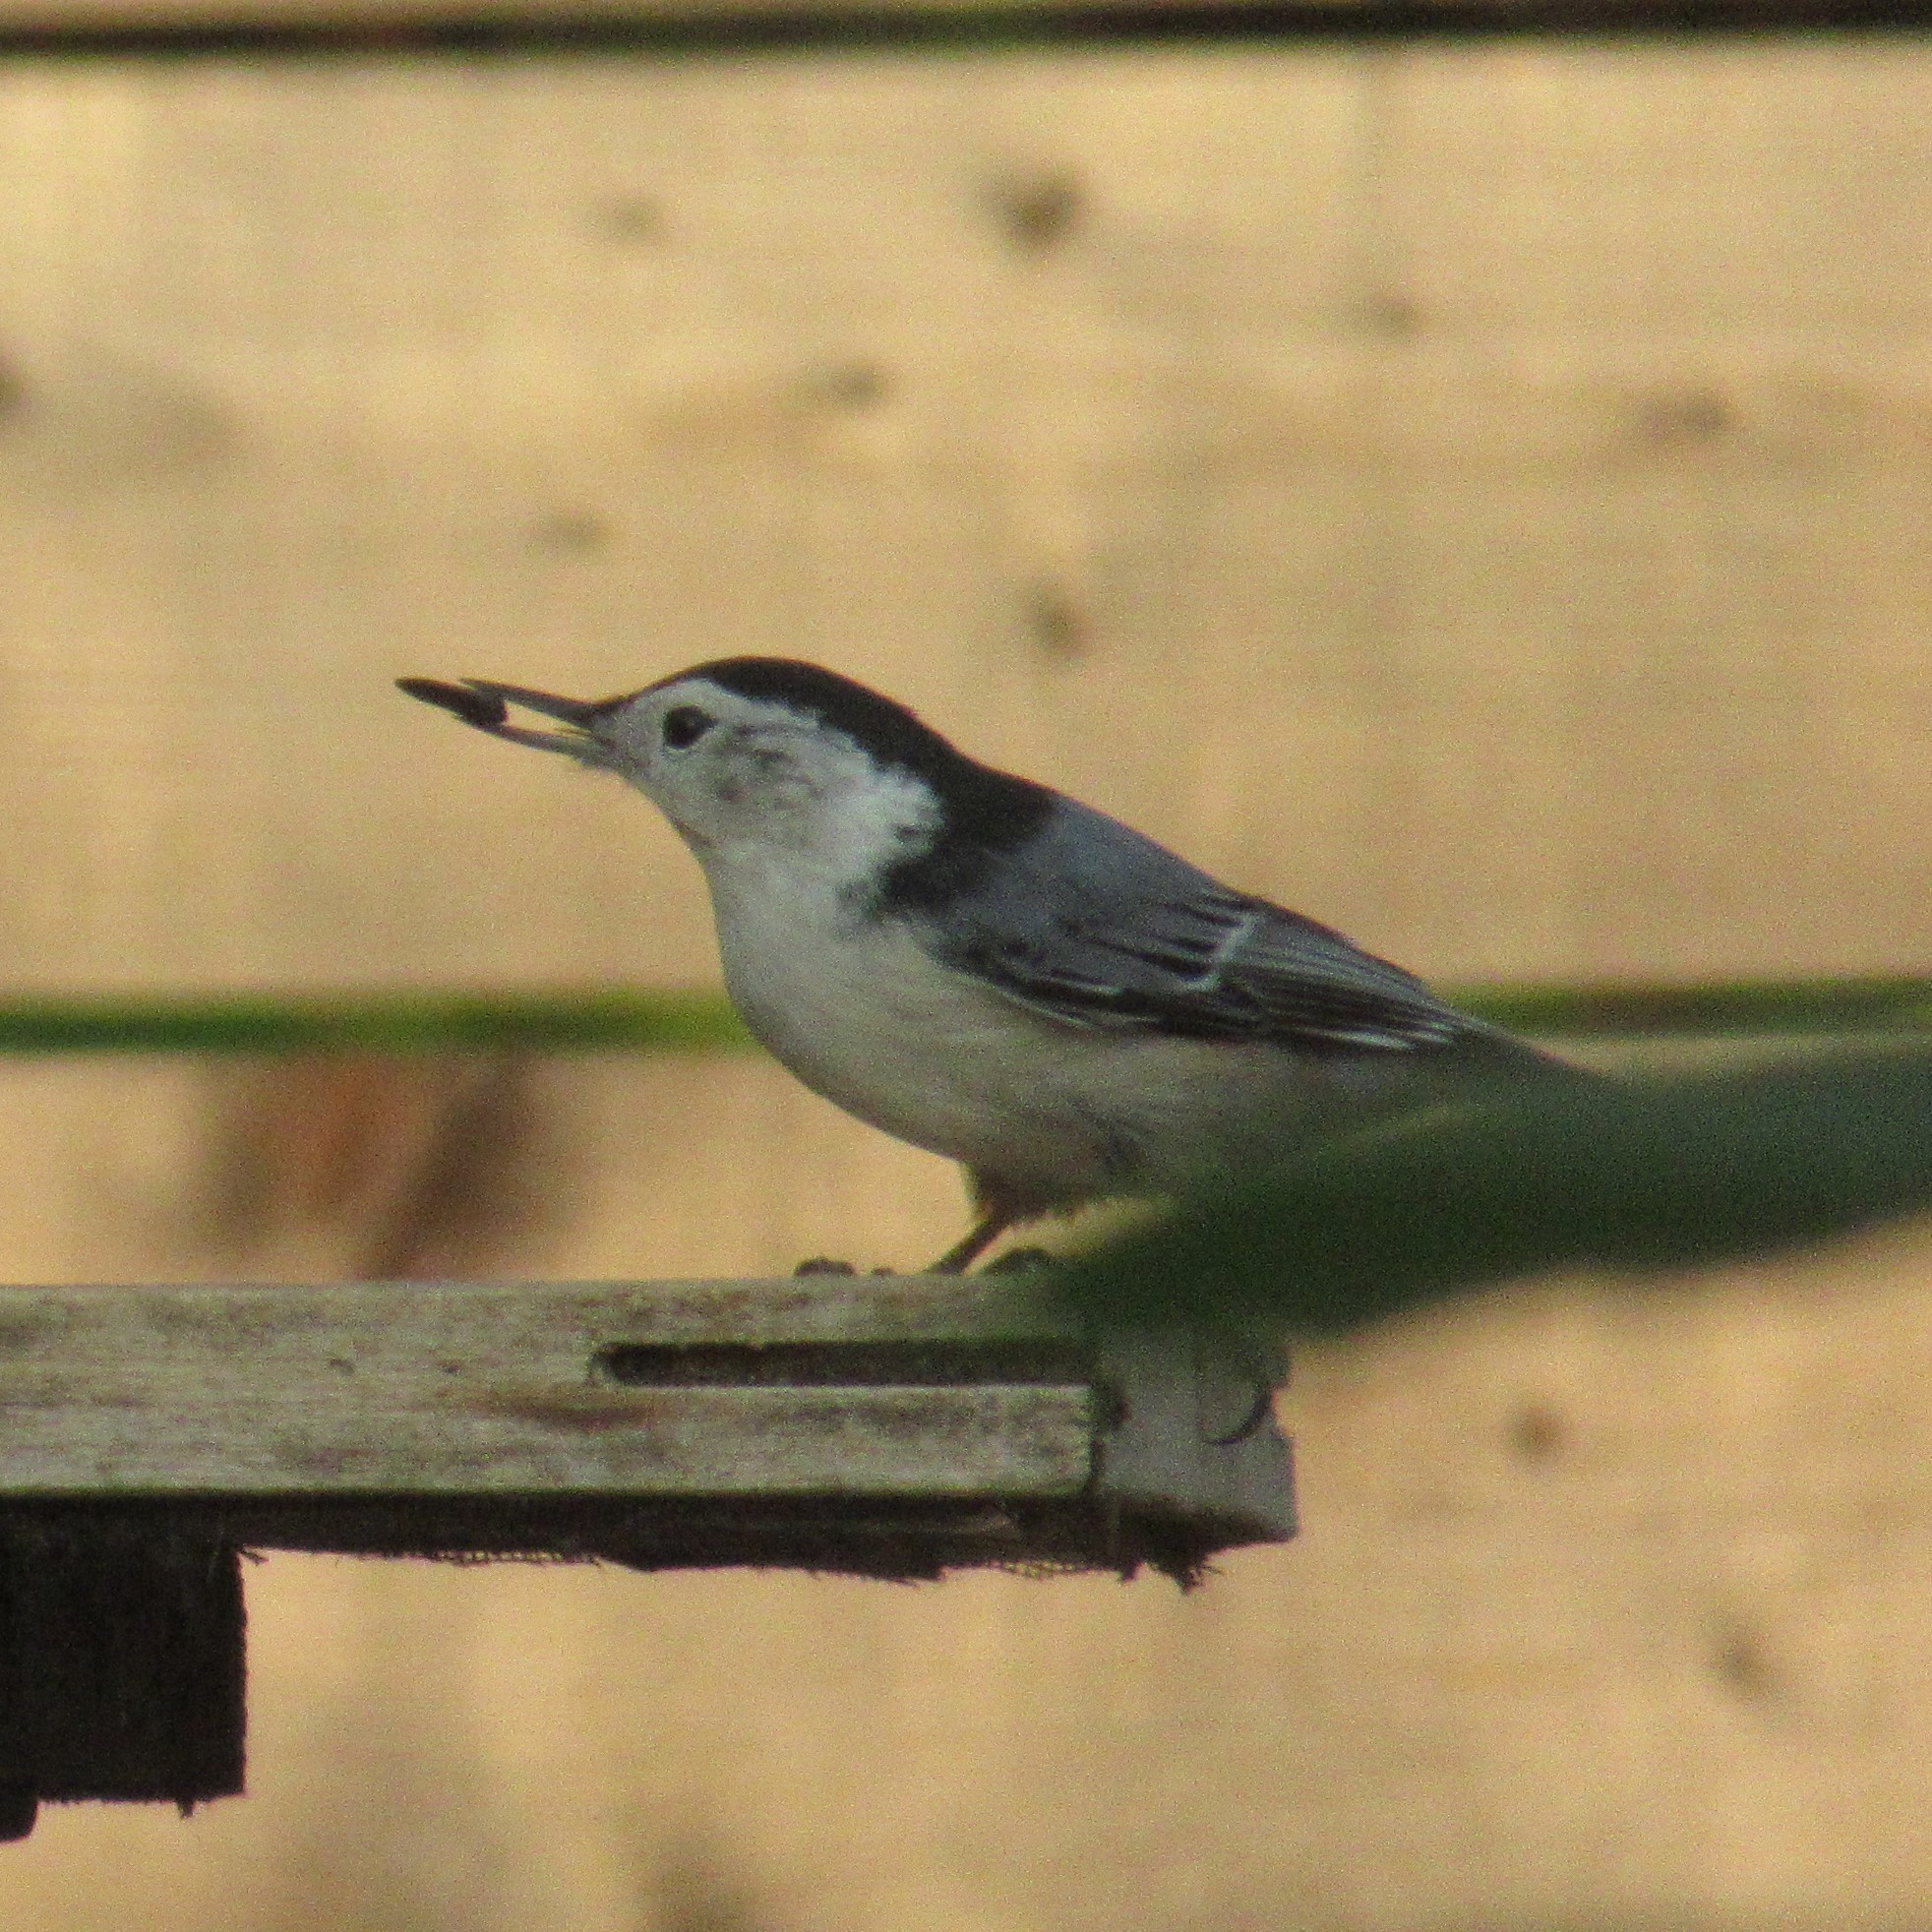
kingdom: Animalia
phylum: Chordata
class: Aves
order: Passeriformes
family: Sittidae
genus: Sitta
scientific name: Sitta carolinensis
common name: White-breasted nuthatch
